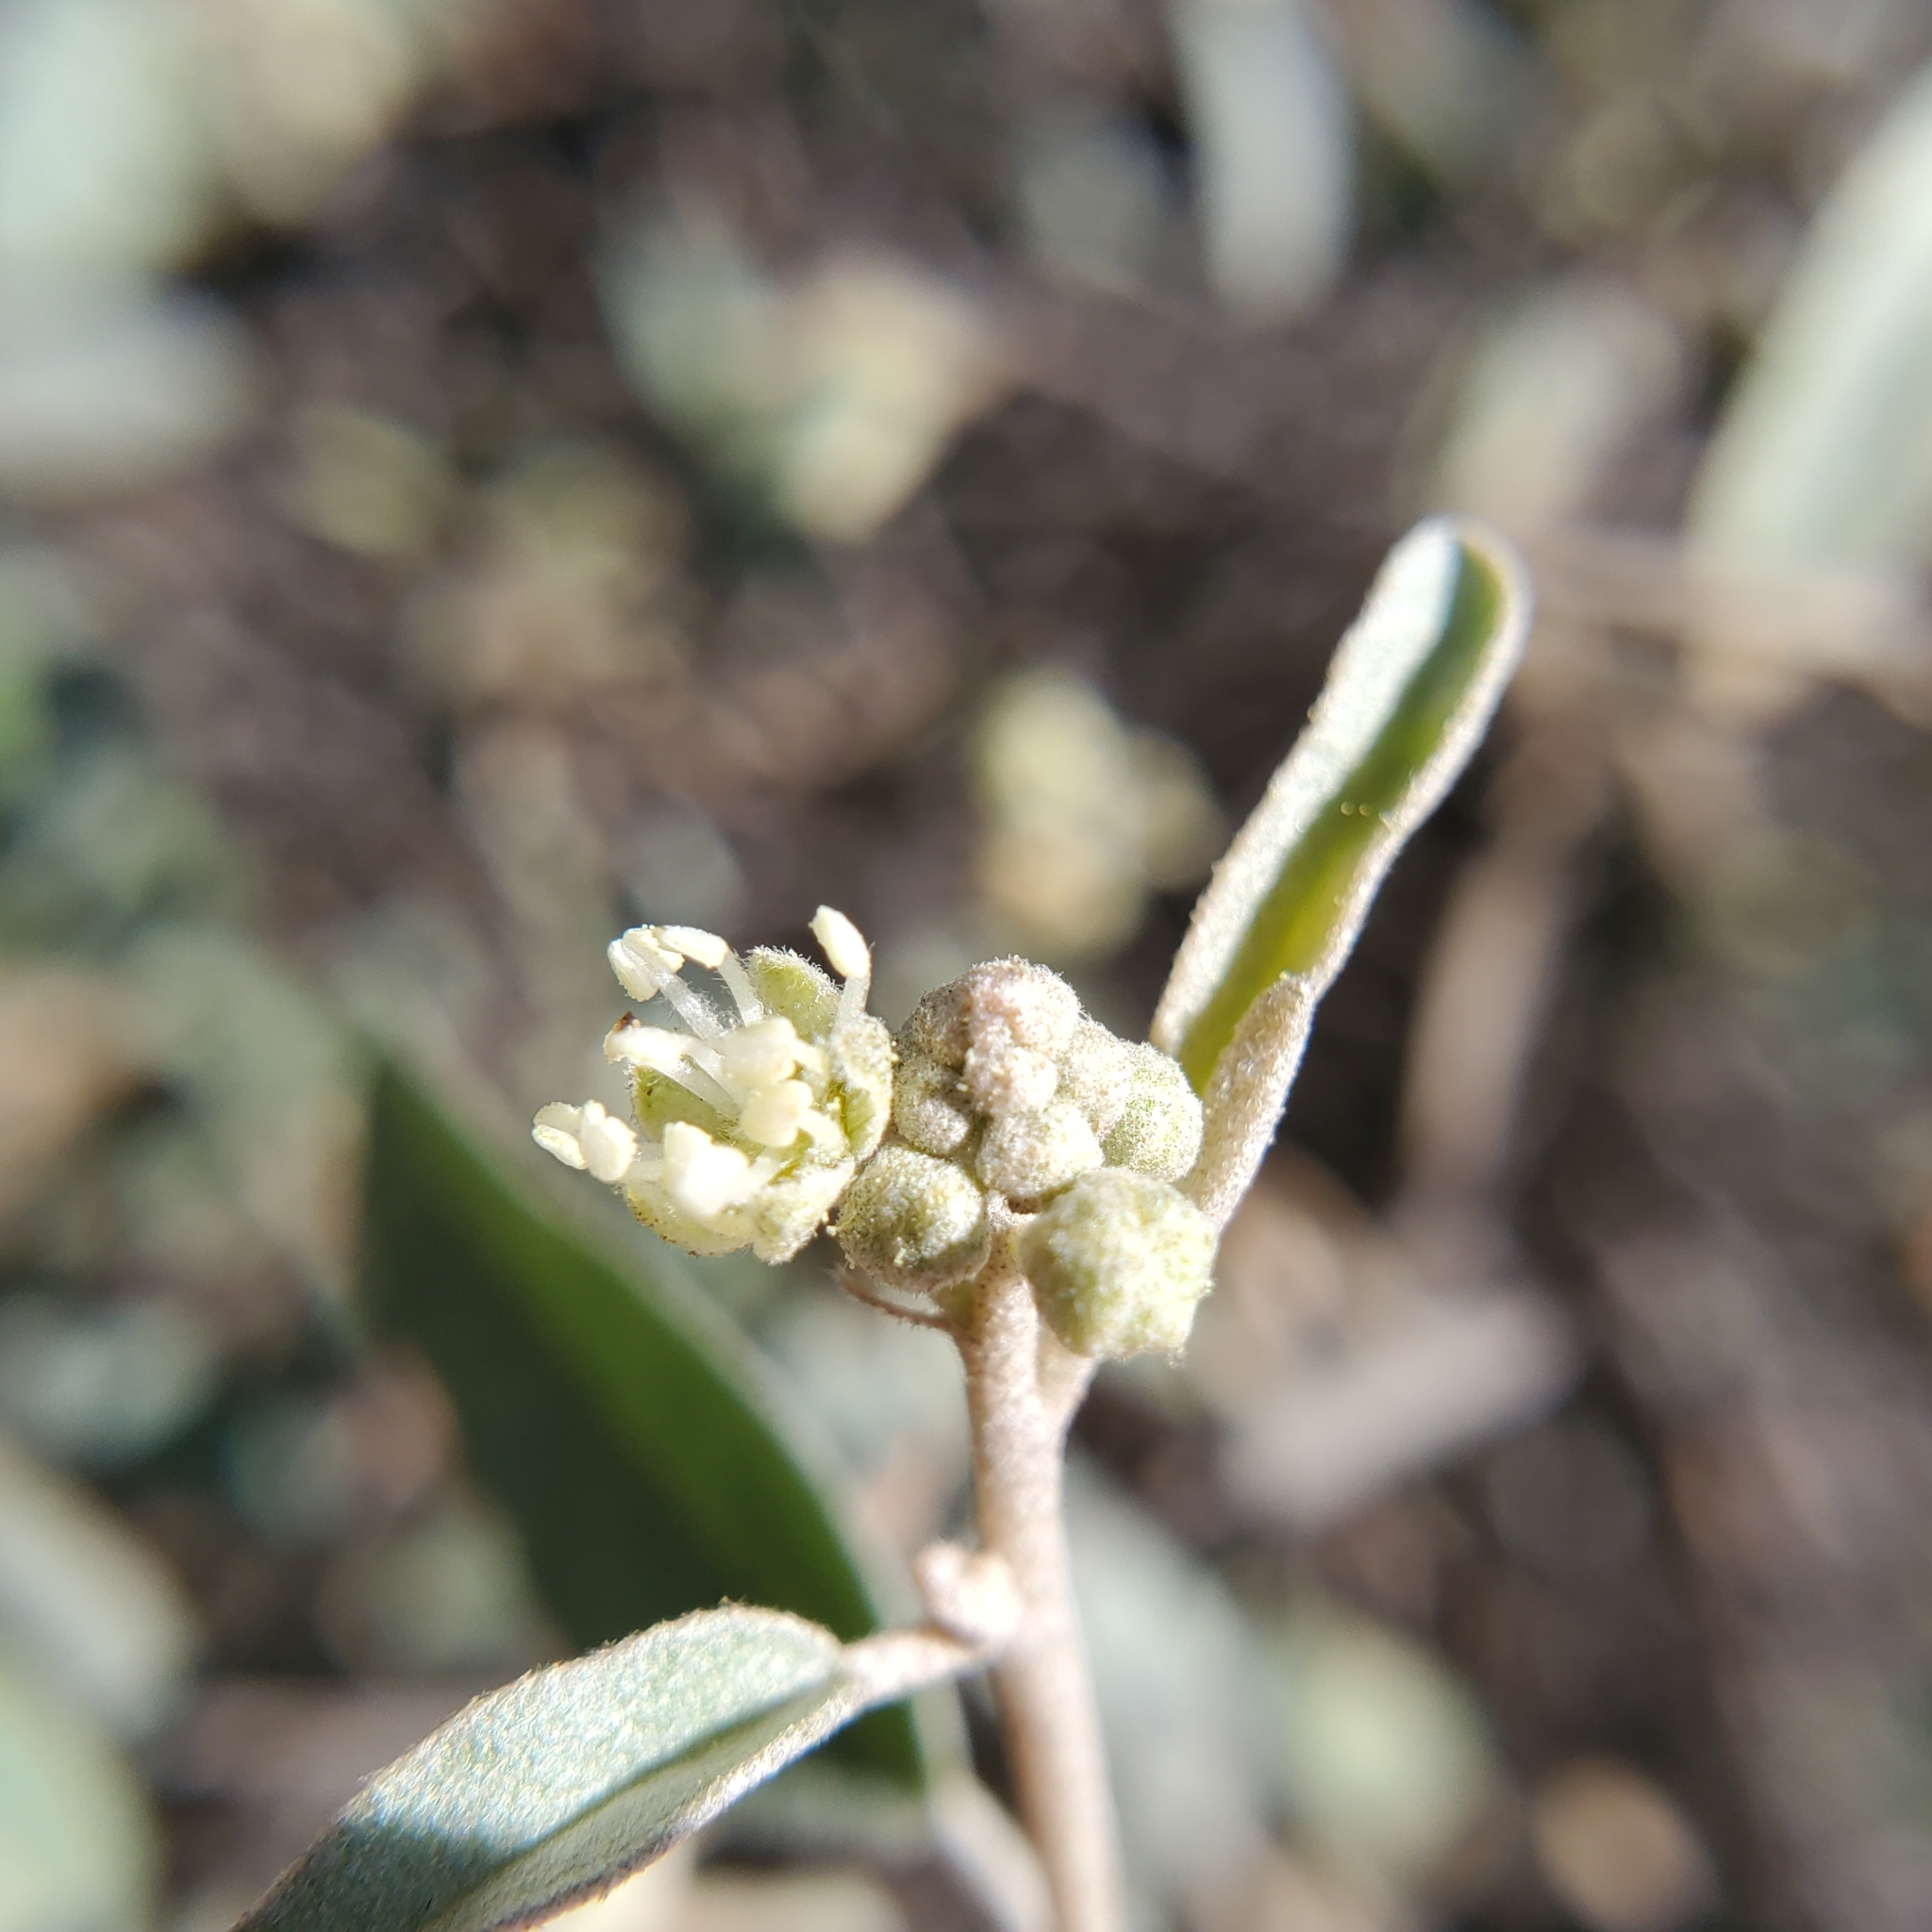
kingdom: Plantae
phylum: Tracheophyta
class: Magnoliopsida
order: Malpighiales
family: Euphorbiaceae
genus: Croton
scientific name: Croton californicus
